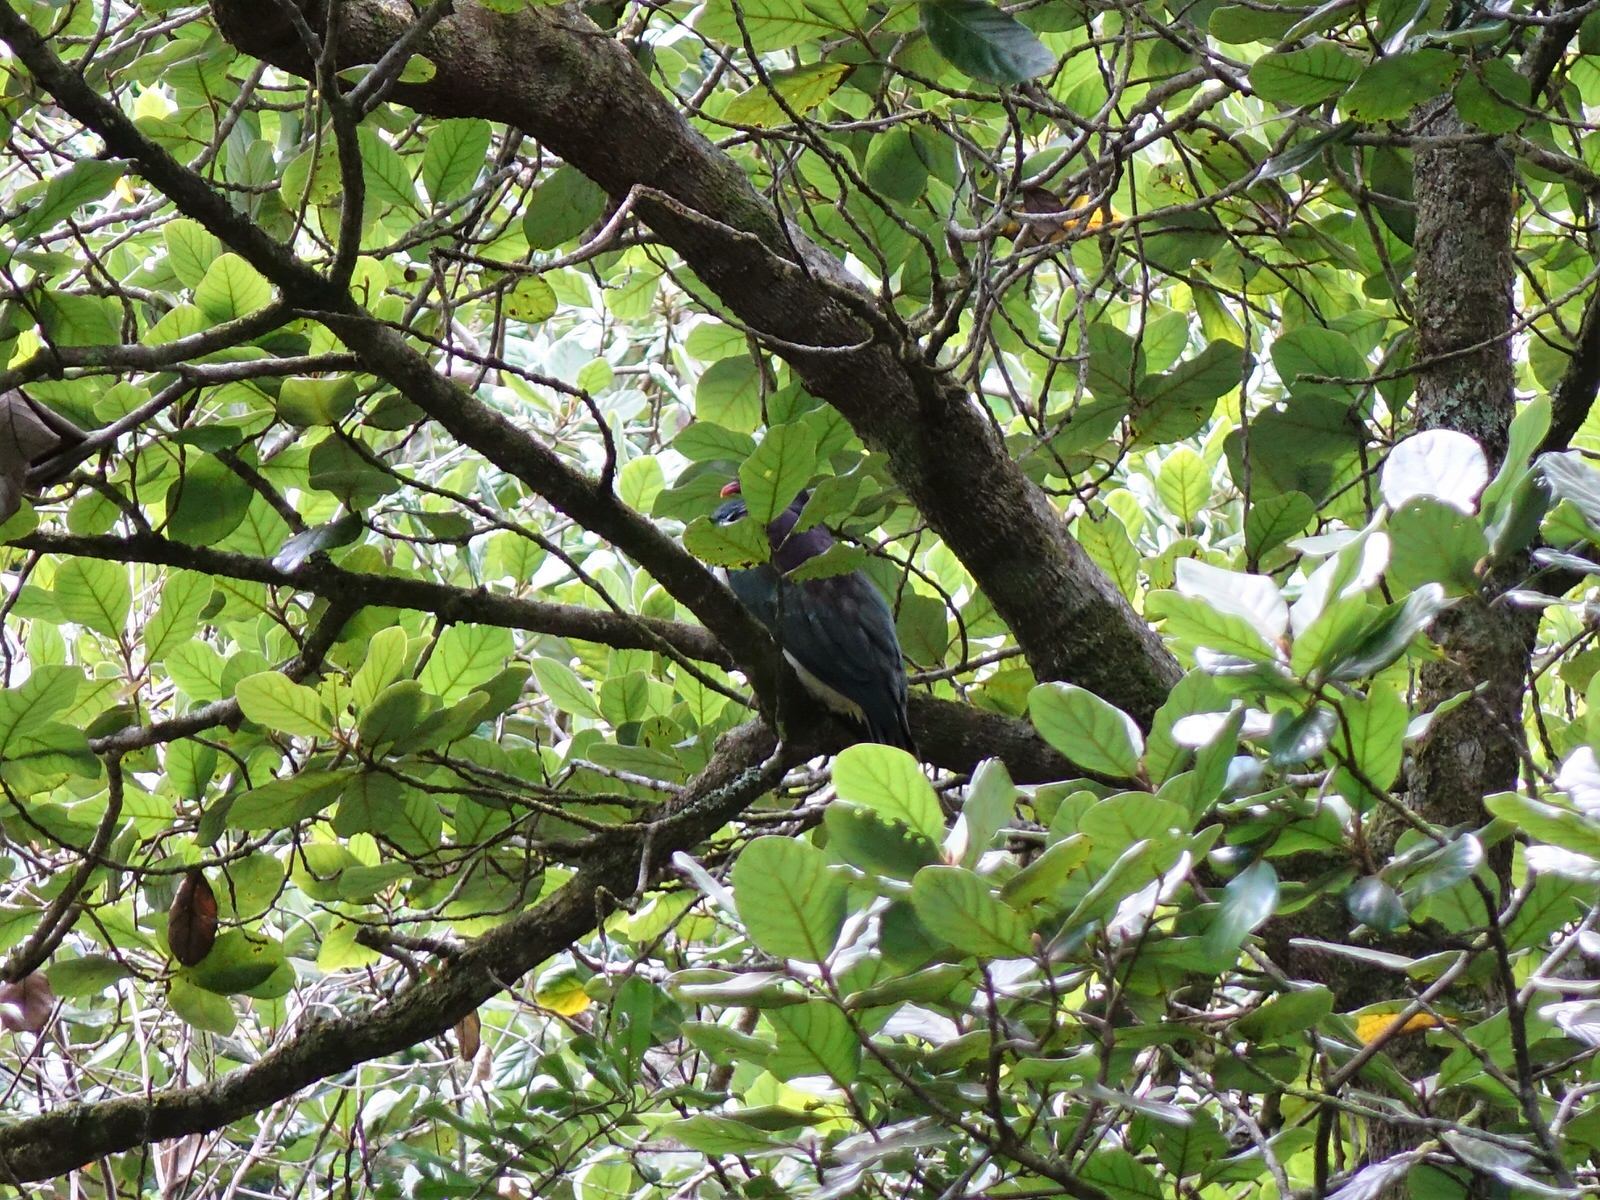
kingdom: Animalia
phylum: Chordata
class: Aves
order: Columbiformes
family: Columbidae
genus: Hemiphaga
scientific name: Hemiphaga novaeseelandiae
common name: New zealand pigeon
